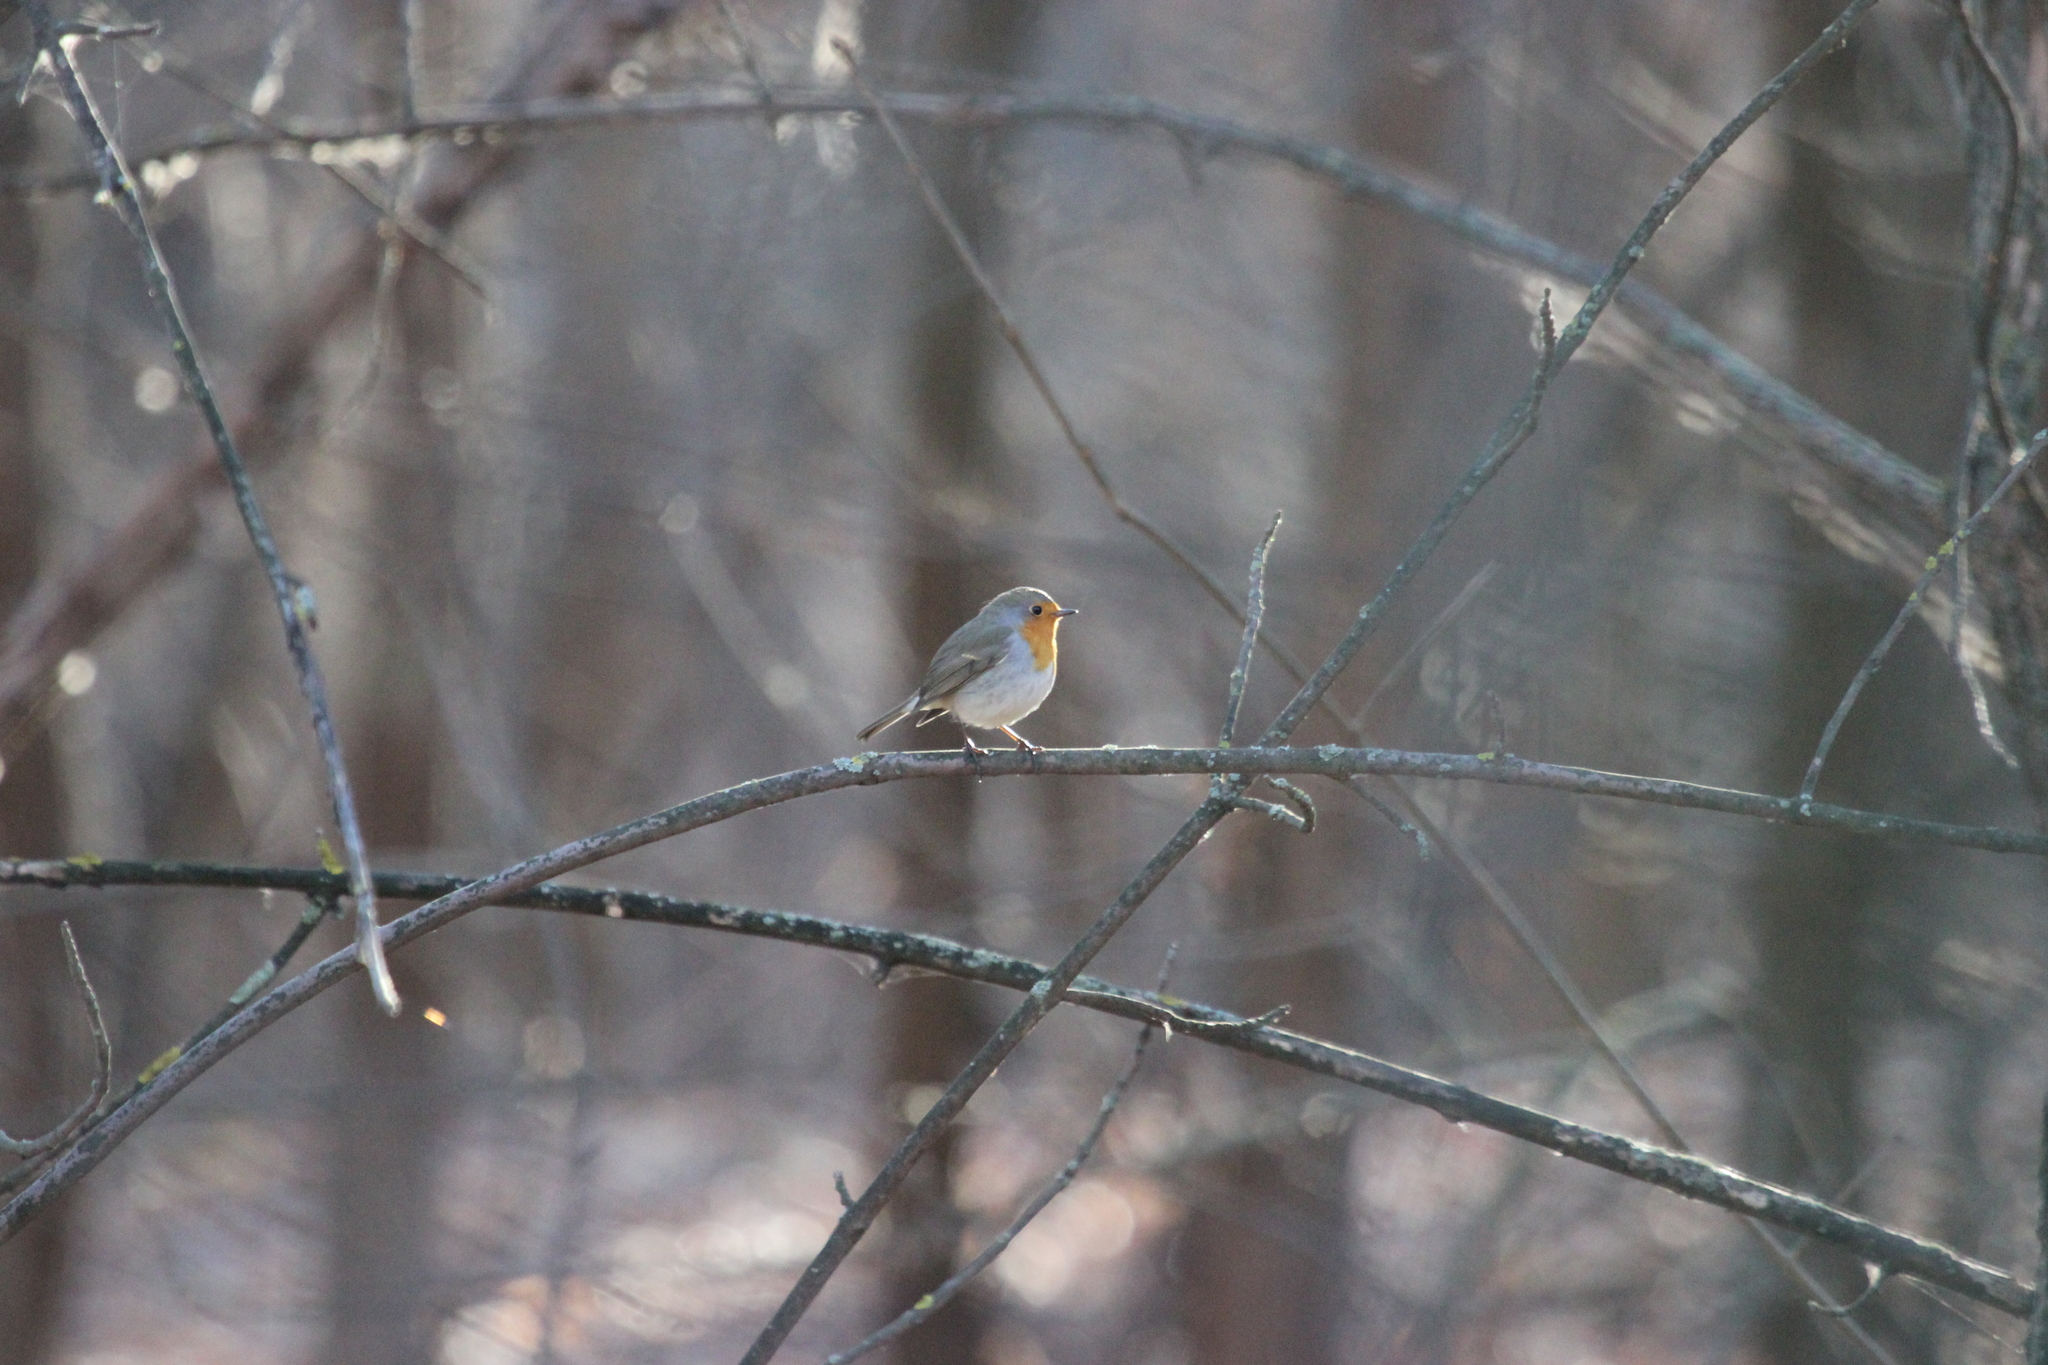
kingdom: Animalia
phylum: Chordata
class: Aves
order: Passeriformes
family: Muscicapidae
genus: Erithacus
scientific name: Erithacus rubecula
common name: European robin
